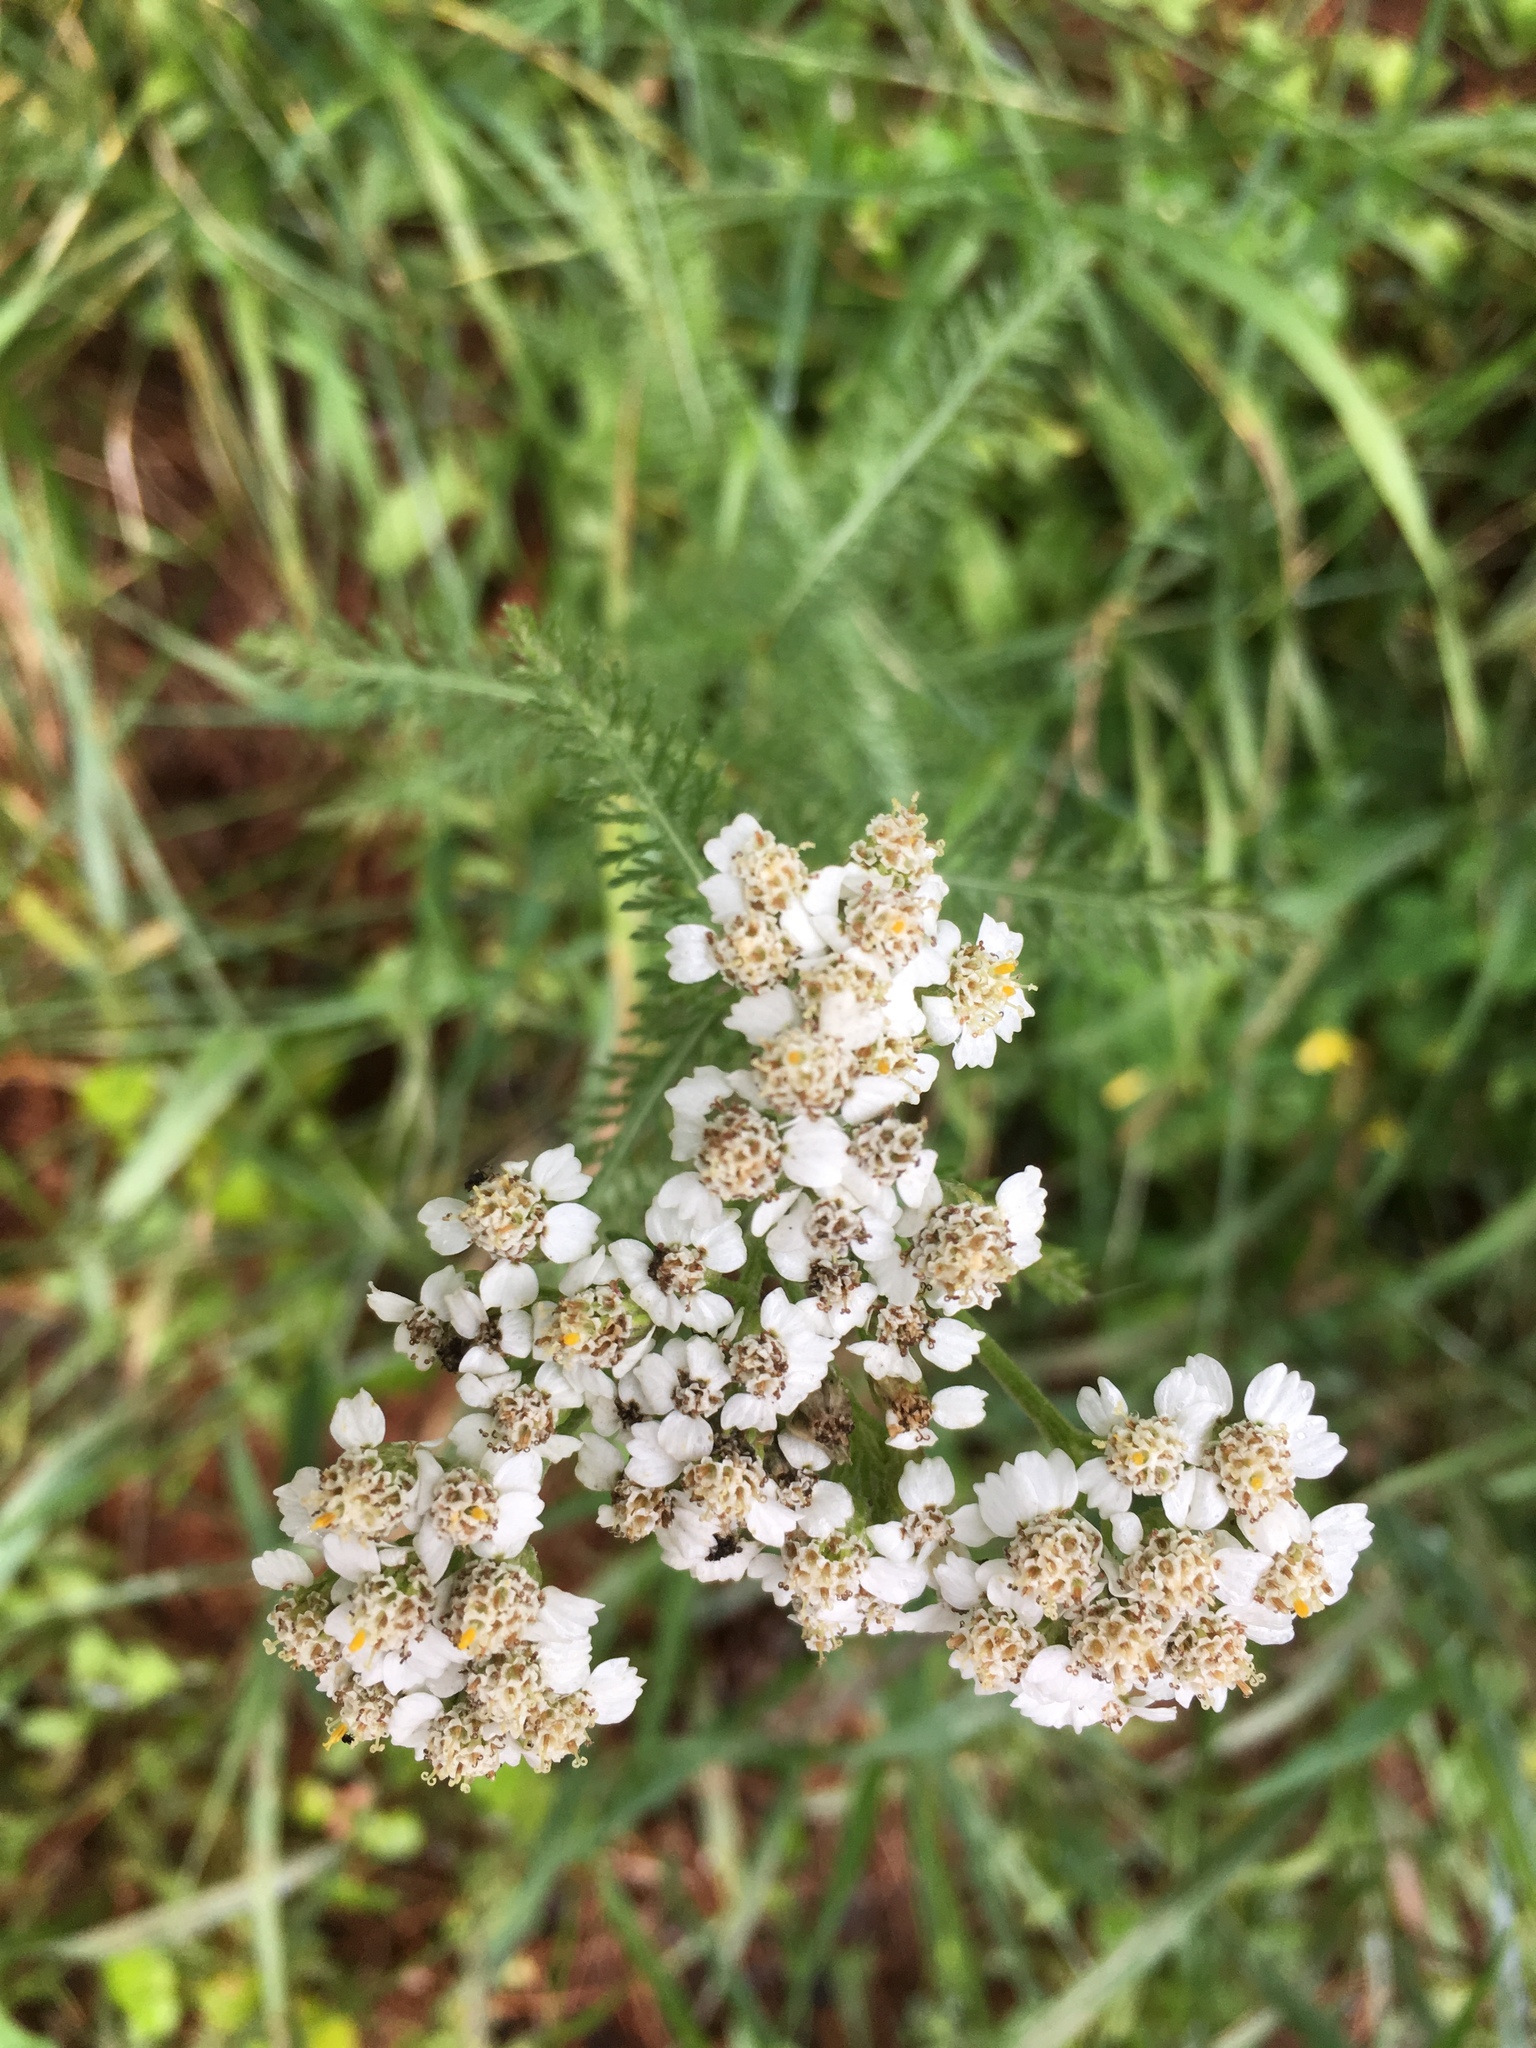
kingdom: Plantae
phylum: Tracheophyta
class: Magnoliopsida
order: Asterales
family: Asteraceae
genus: Achillea
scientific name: Achillea millefolium
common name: Yarrow
